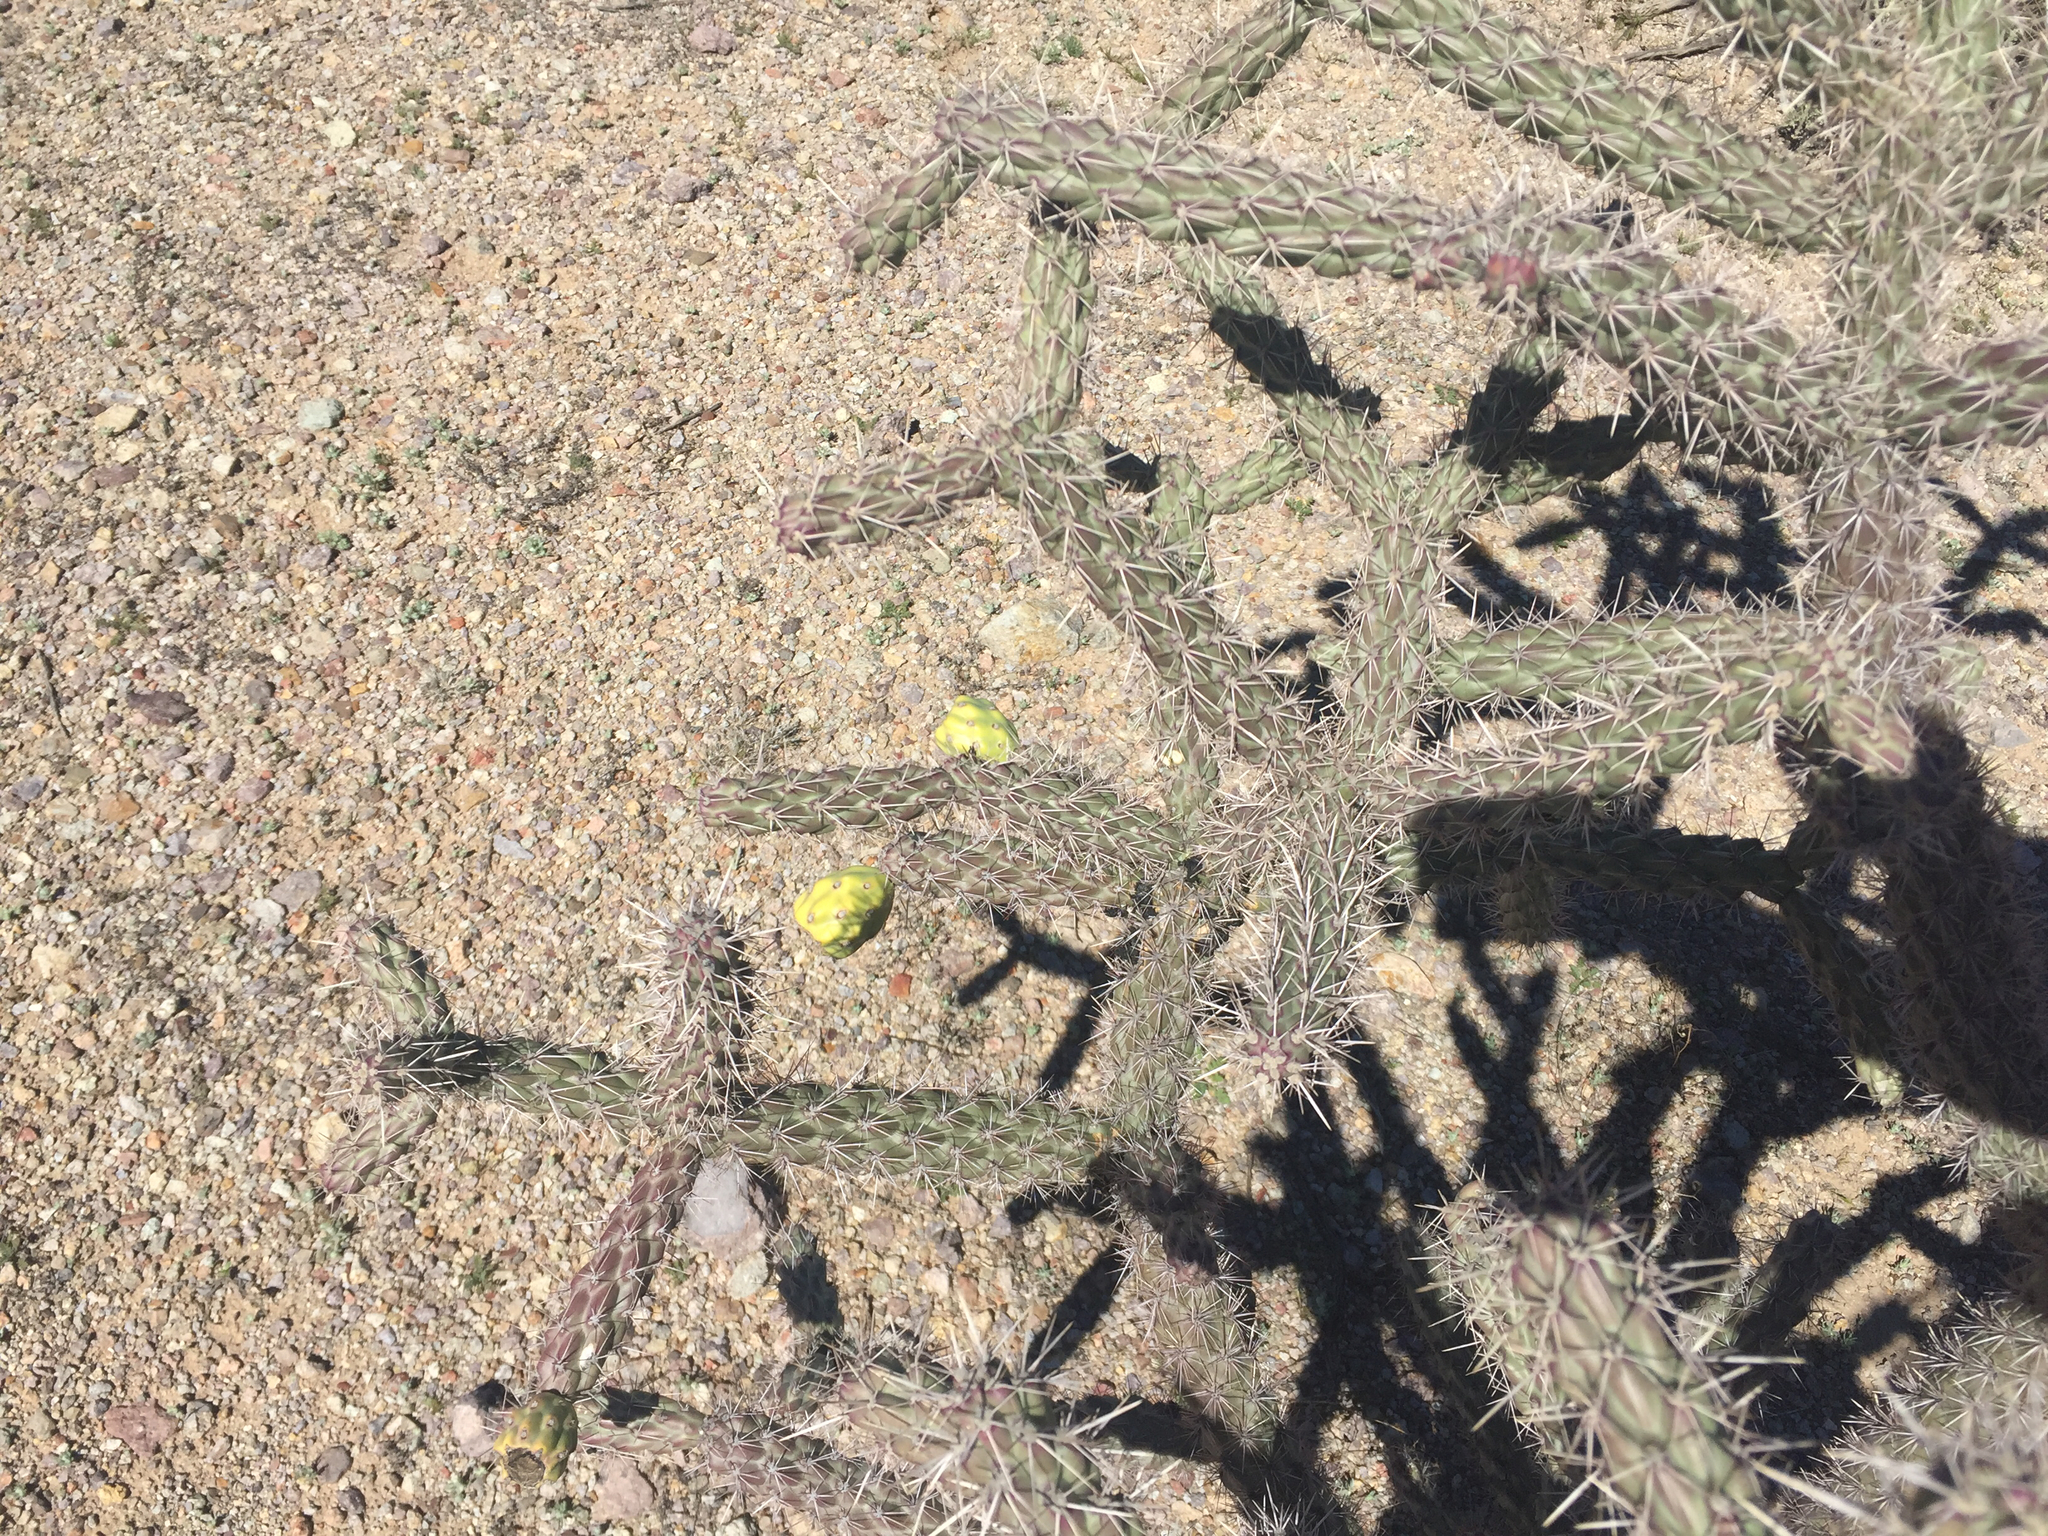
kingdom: Plantae
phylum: Tracheophyta
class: Magnoliopsida
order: Caryophyllales
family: Cactaceae
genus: Cylindropuntia
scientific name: Cylindropuntia imbricata
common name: Candelabrum cactus
